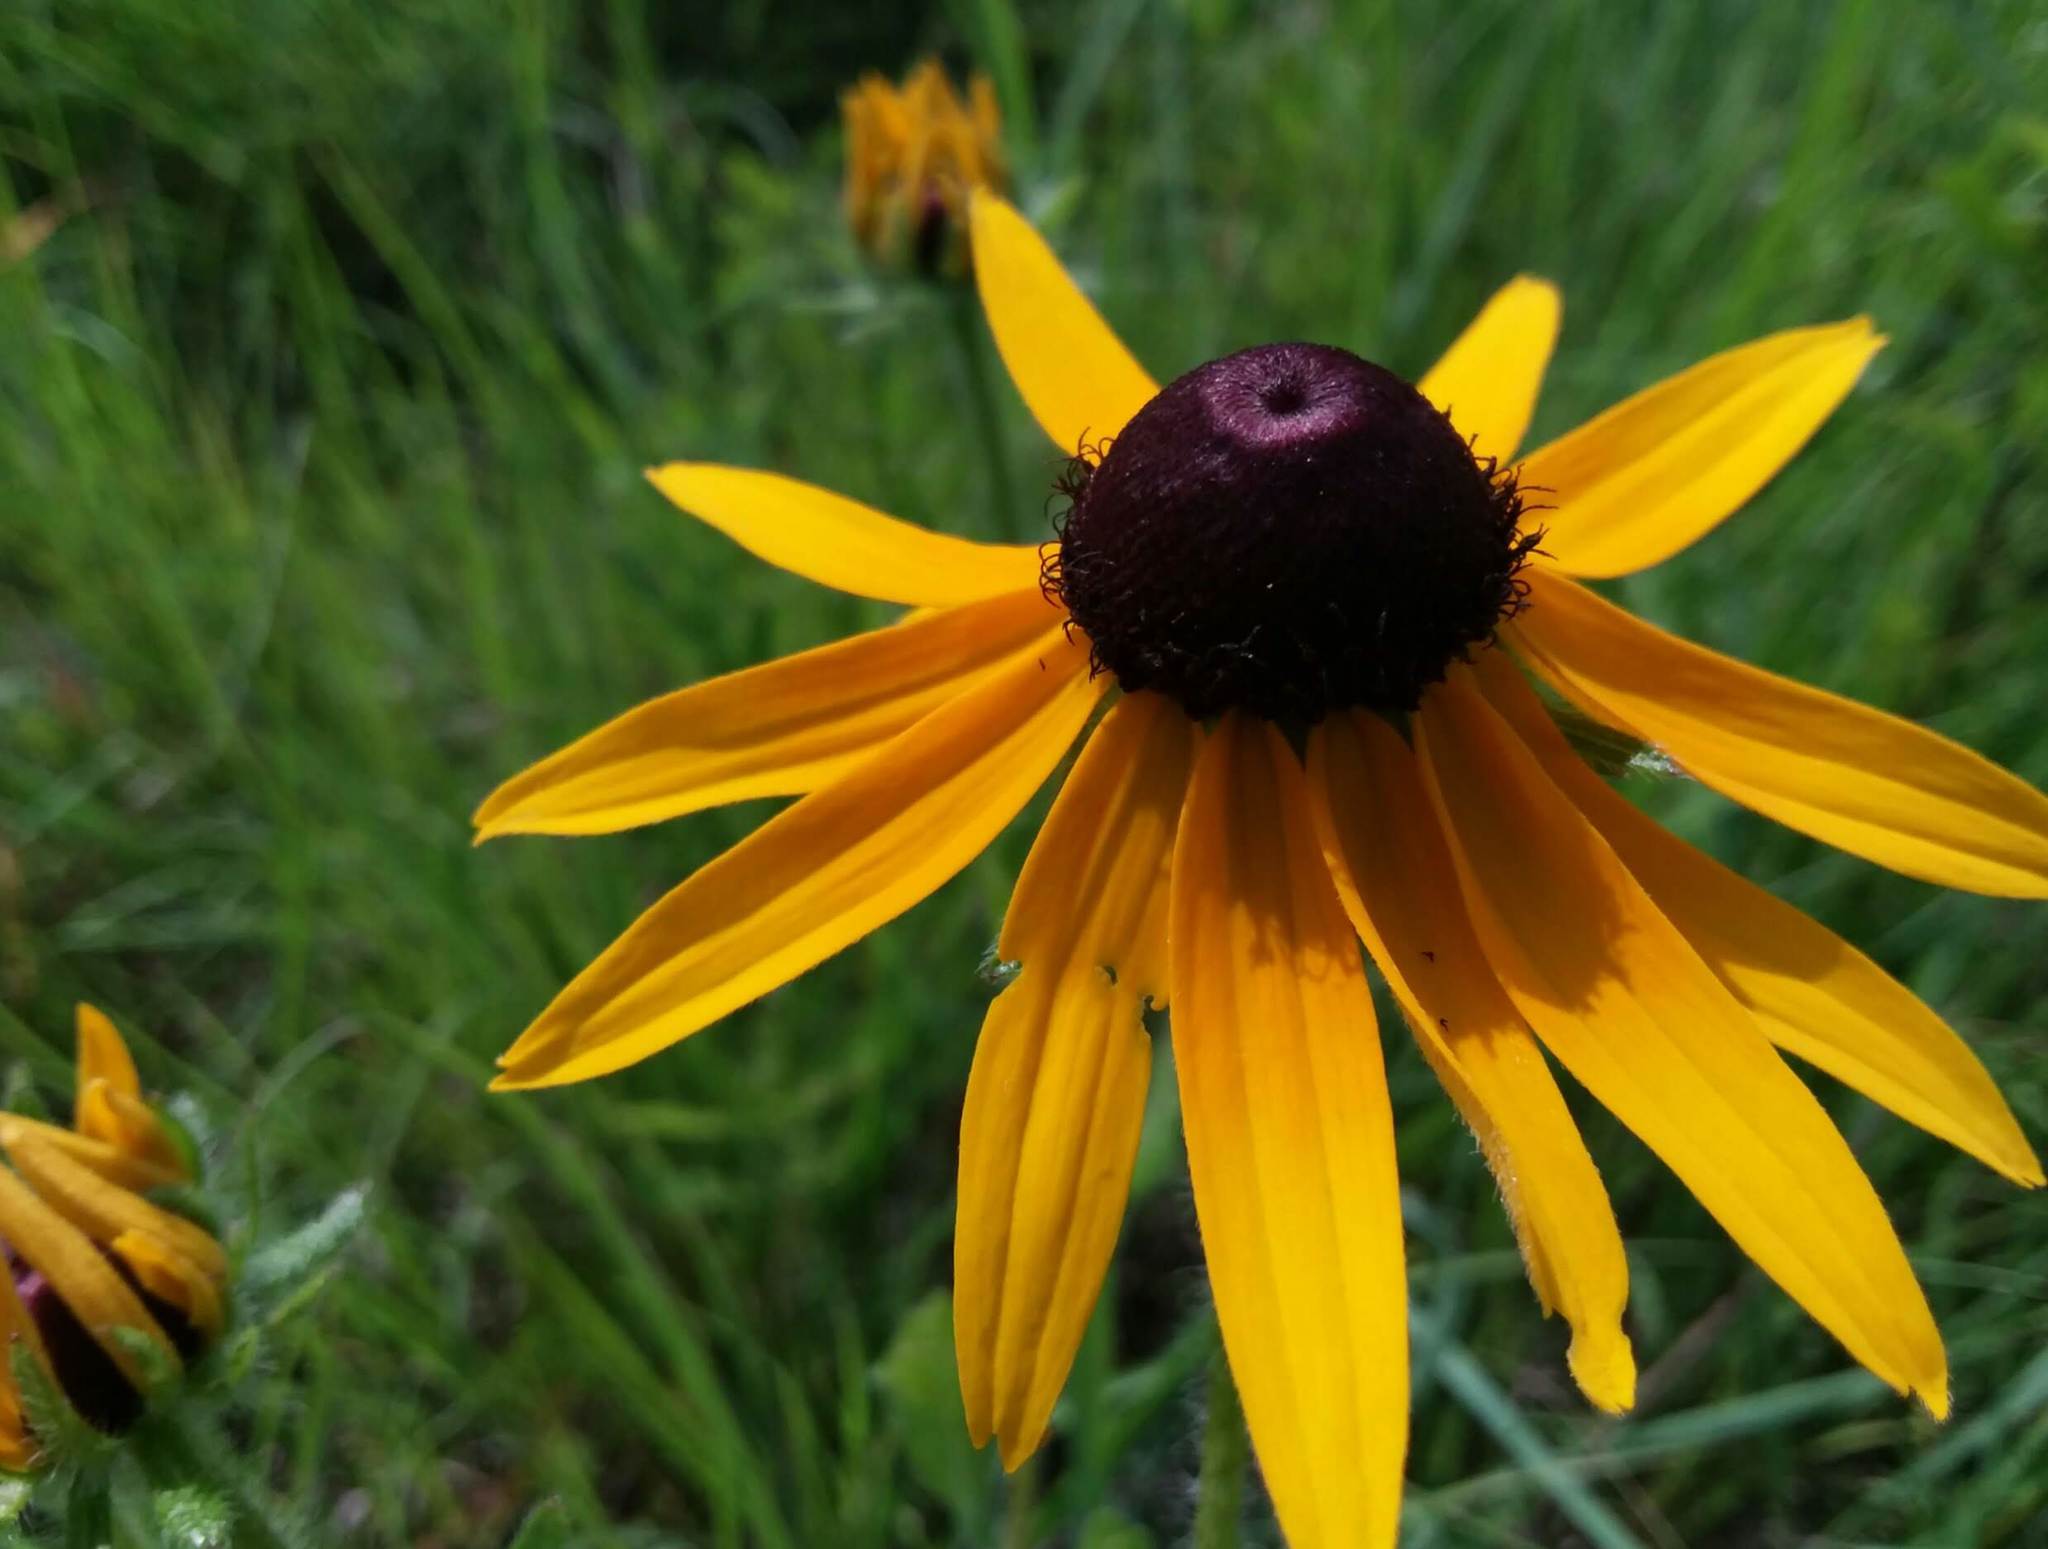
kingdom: Plantae
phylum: Tracheophyta
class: Magnoliopsida
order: Asterales
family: Asteraceae
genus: Rudbeckia
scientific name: Rudbeckia hirta
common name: Black-eyed-susan
